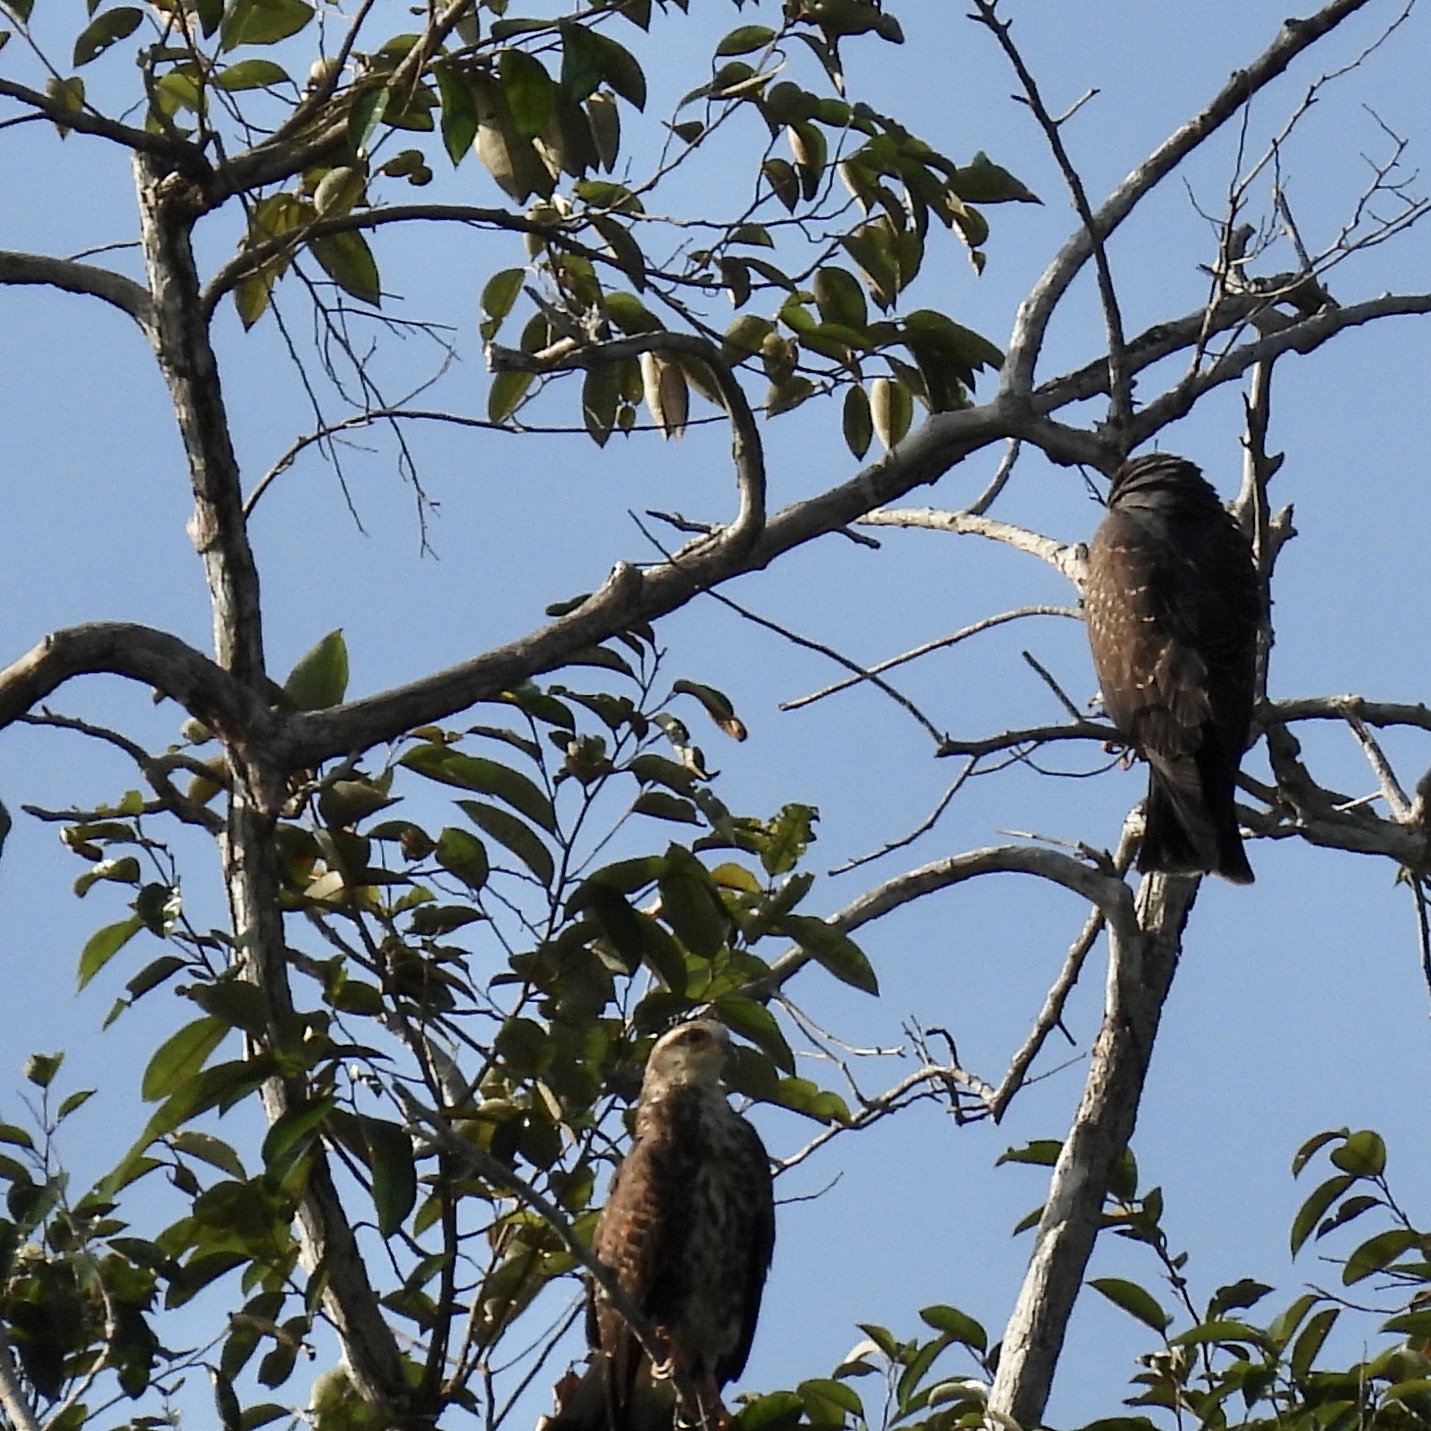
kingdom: Animalia
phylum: Chordata
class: Aves
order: Accipitriformes
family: Accipitridae
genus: Rostrhamus
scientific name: Rostrhamus sociabilis
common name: Snail kite
